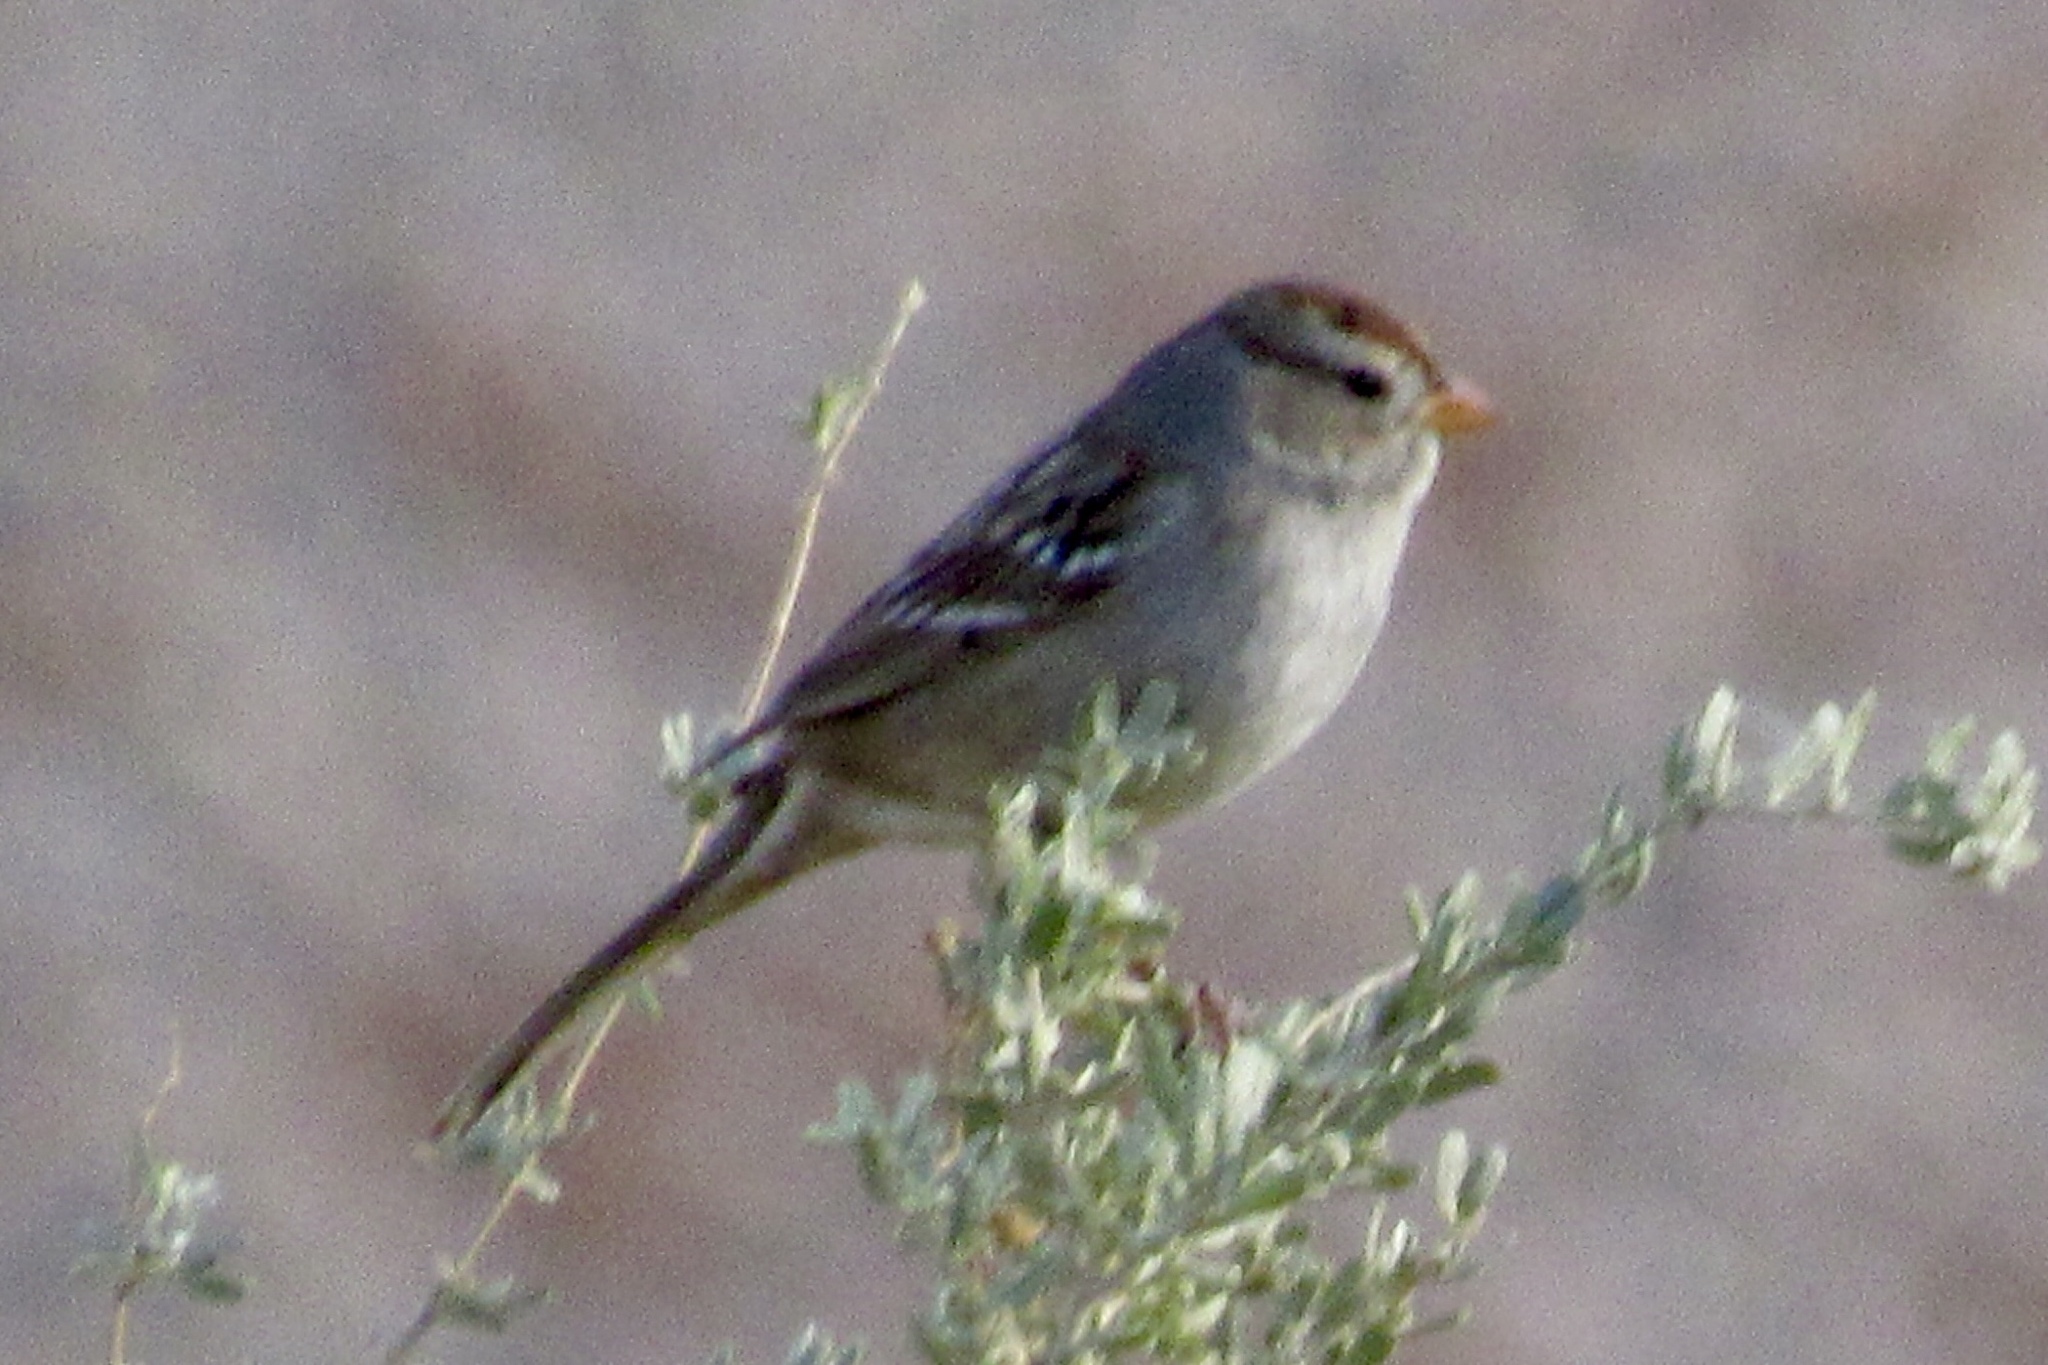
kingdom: Animalia
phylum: Chordata
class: Aves
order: Passeriformes
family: Passerellidae
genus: Zonotrichia
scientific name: Zonotrichia leucophrys
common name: White-crowned sparrow
